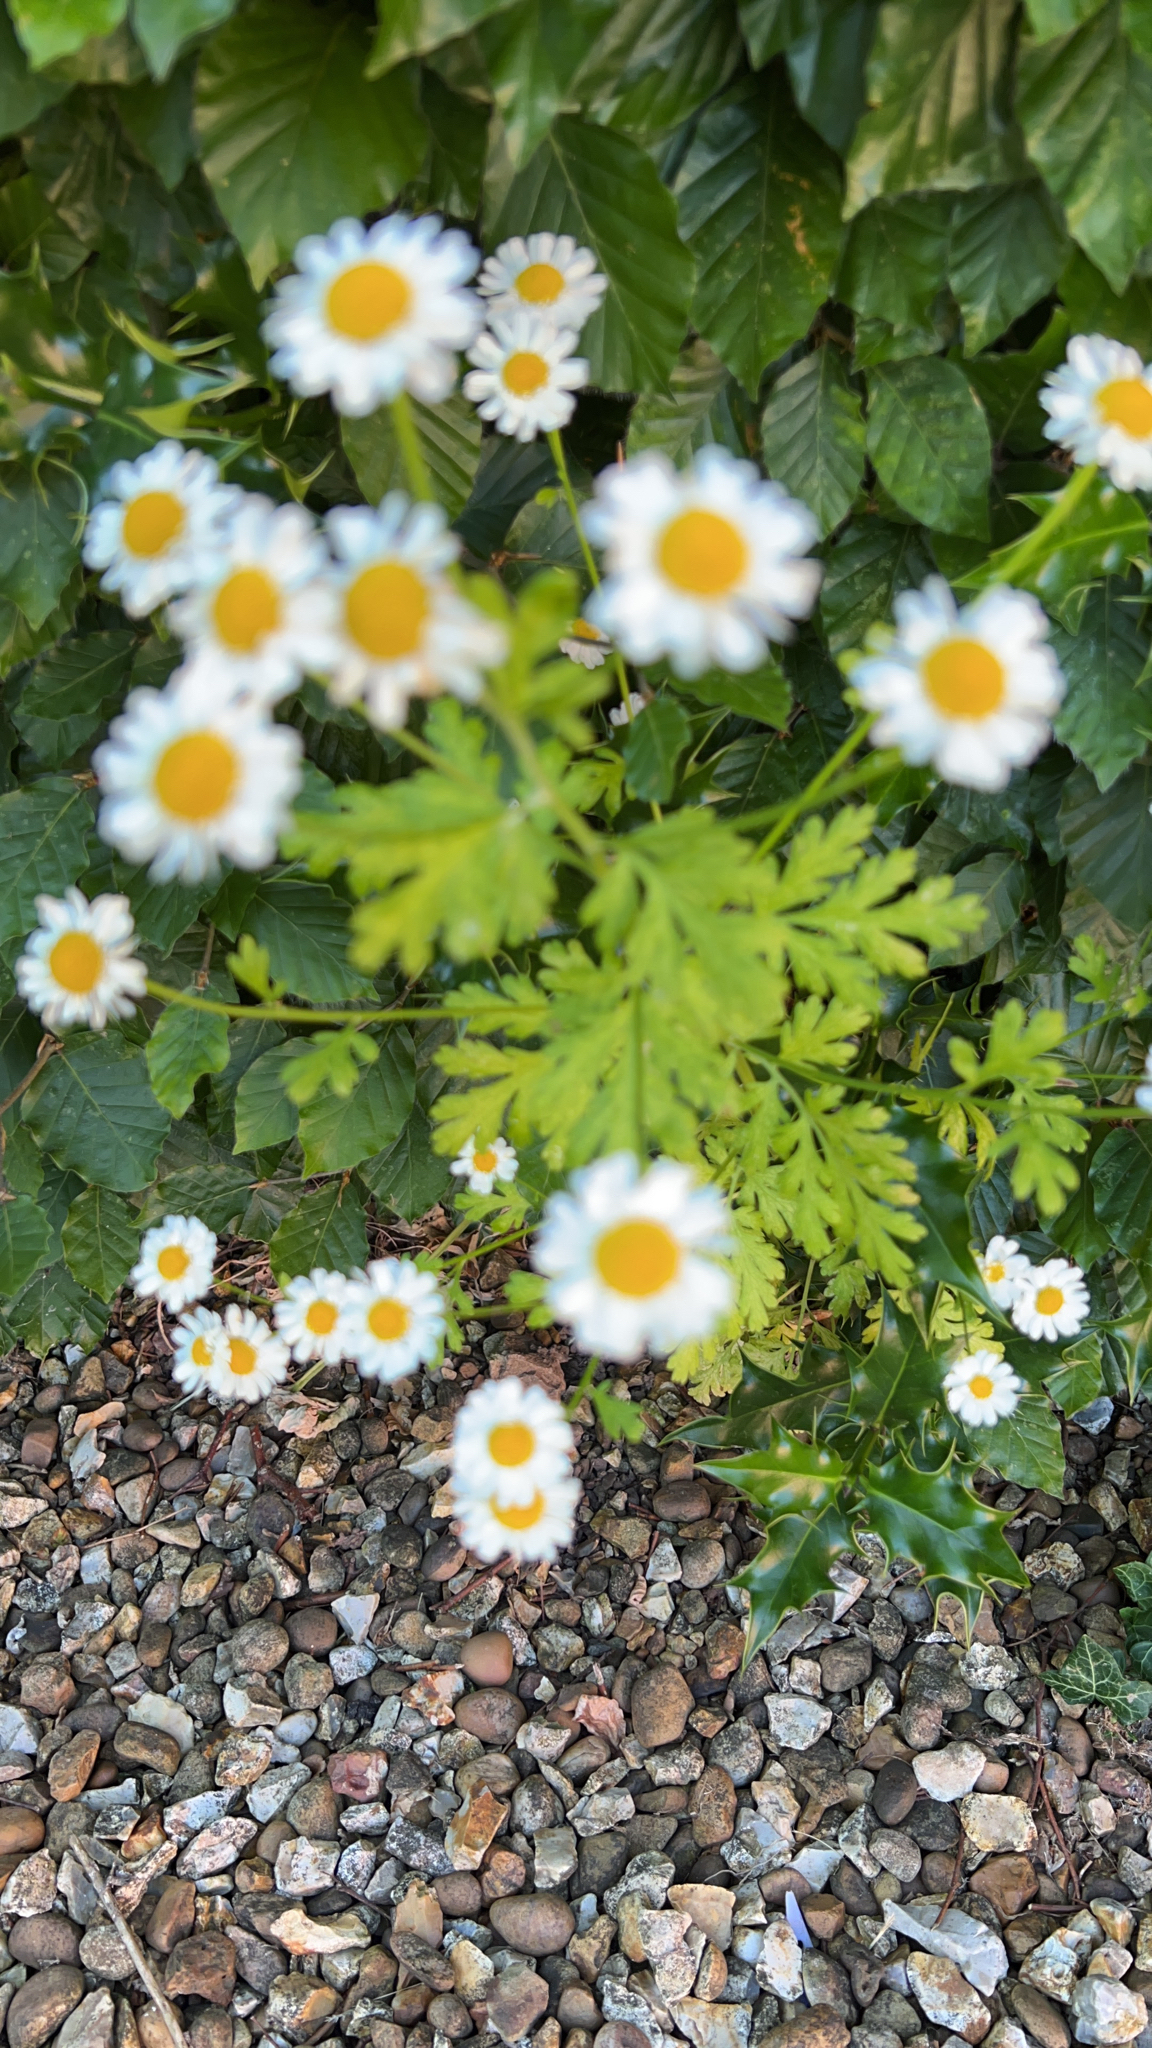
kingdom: Plantae
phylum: Tracheophyta
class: Magnoliopsida
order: Asterales
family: Asteraceae
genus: Tanacetum
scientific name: Tanacetum parthenium
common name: Feverfew
